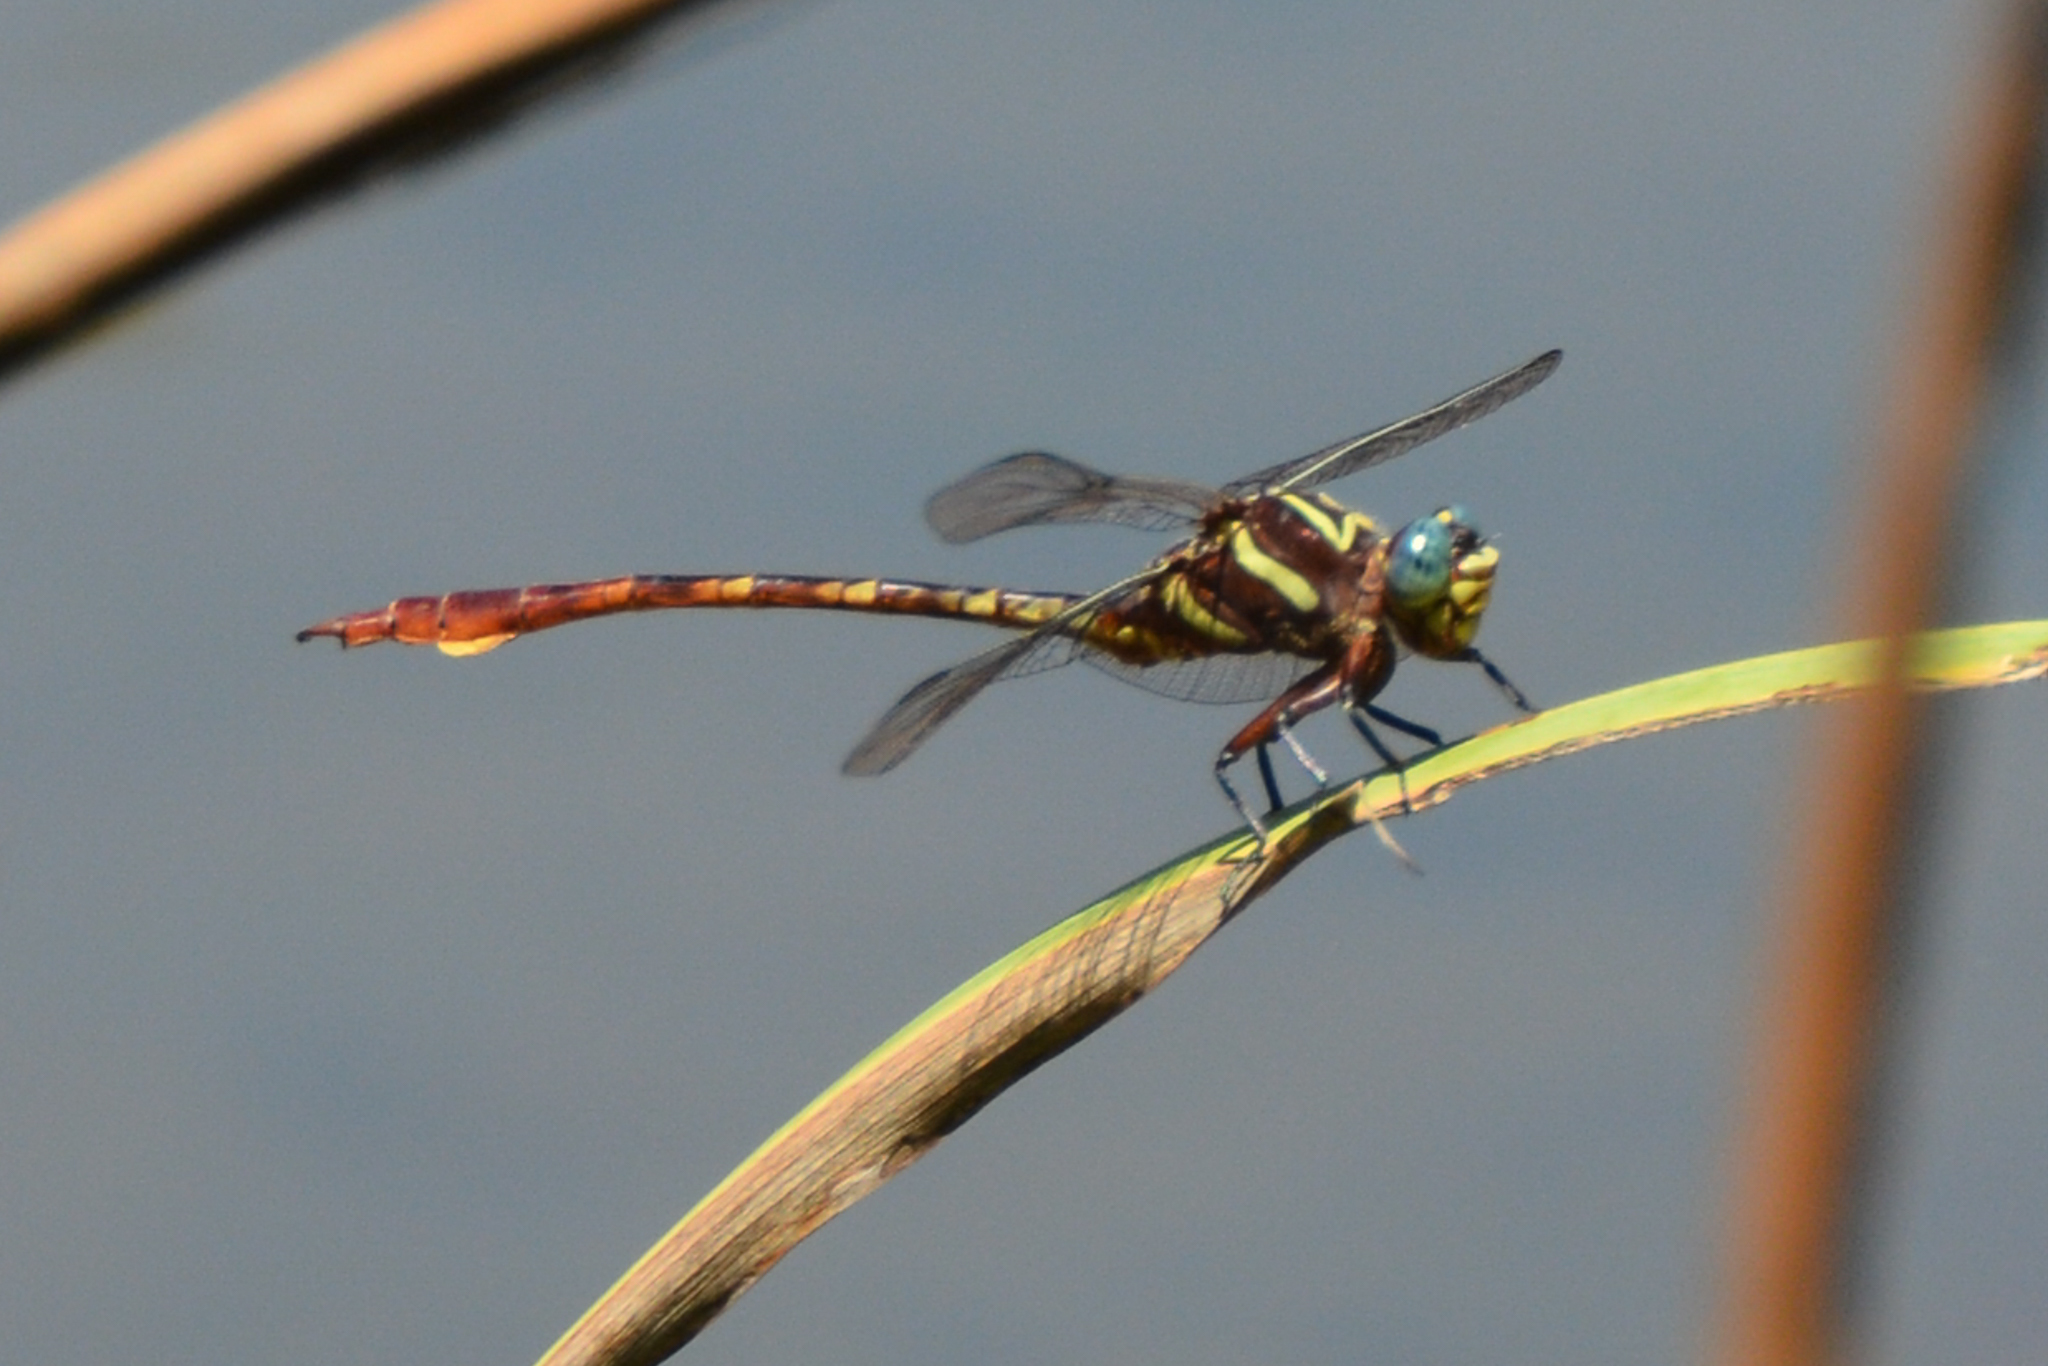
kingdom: Animalia
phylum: Arthropoda
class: Insecta
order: Odonata
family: Gomphidae
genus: Aphylla
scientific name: Aphylla williamsoni
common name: Two-striped forceptail
